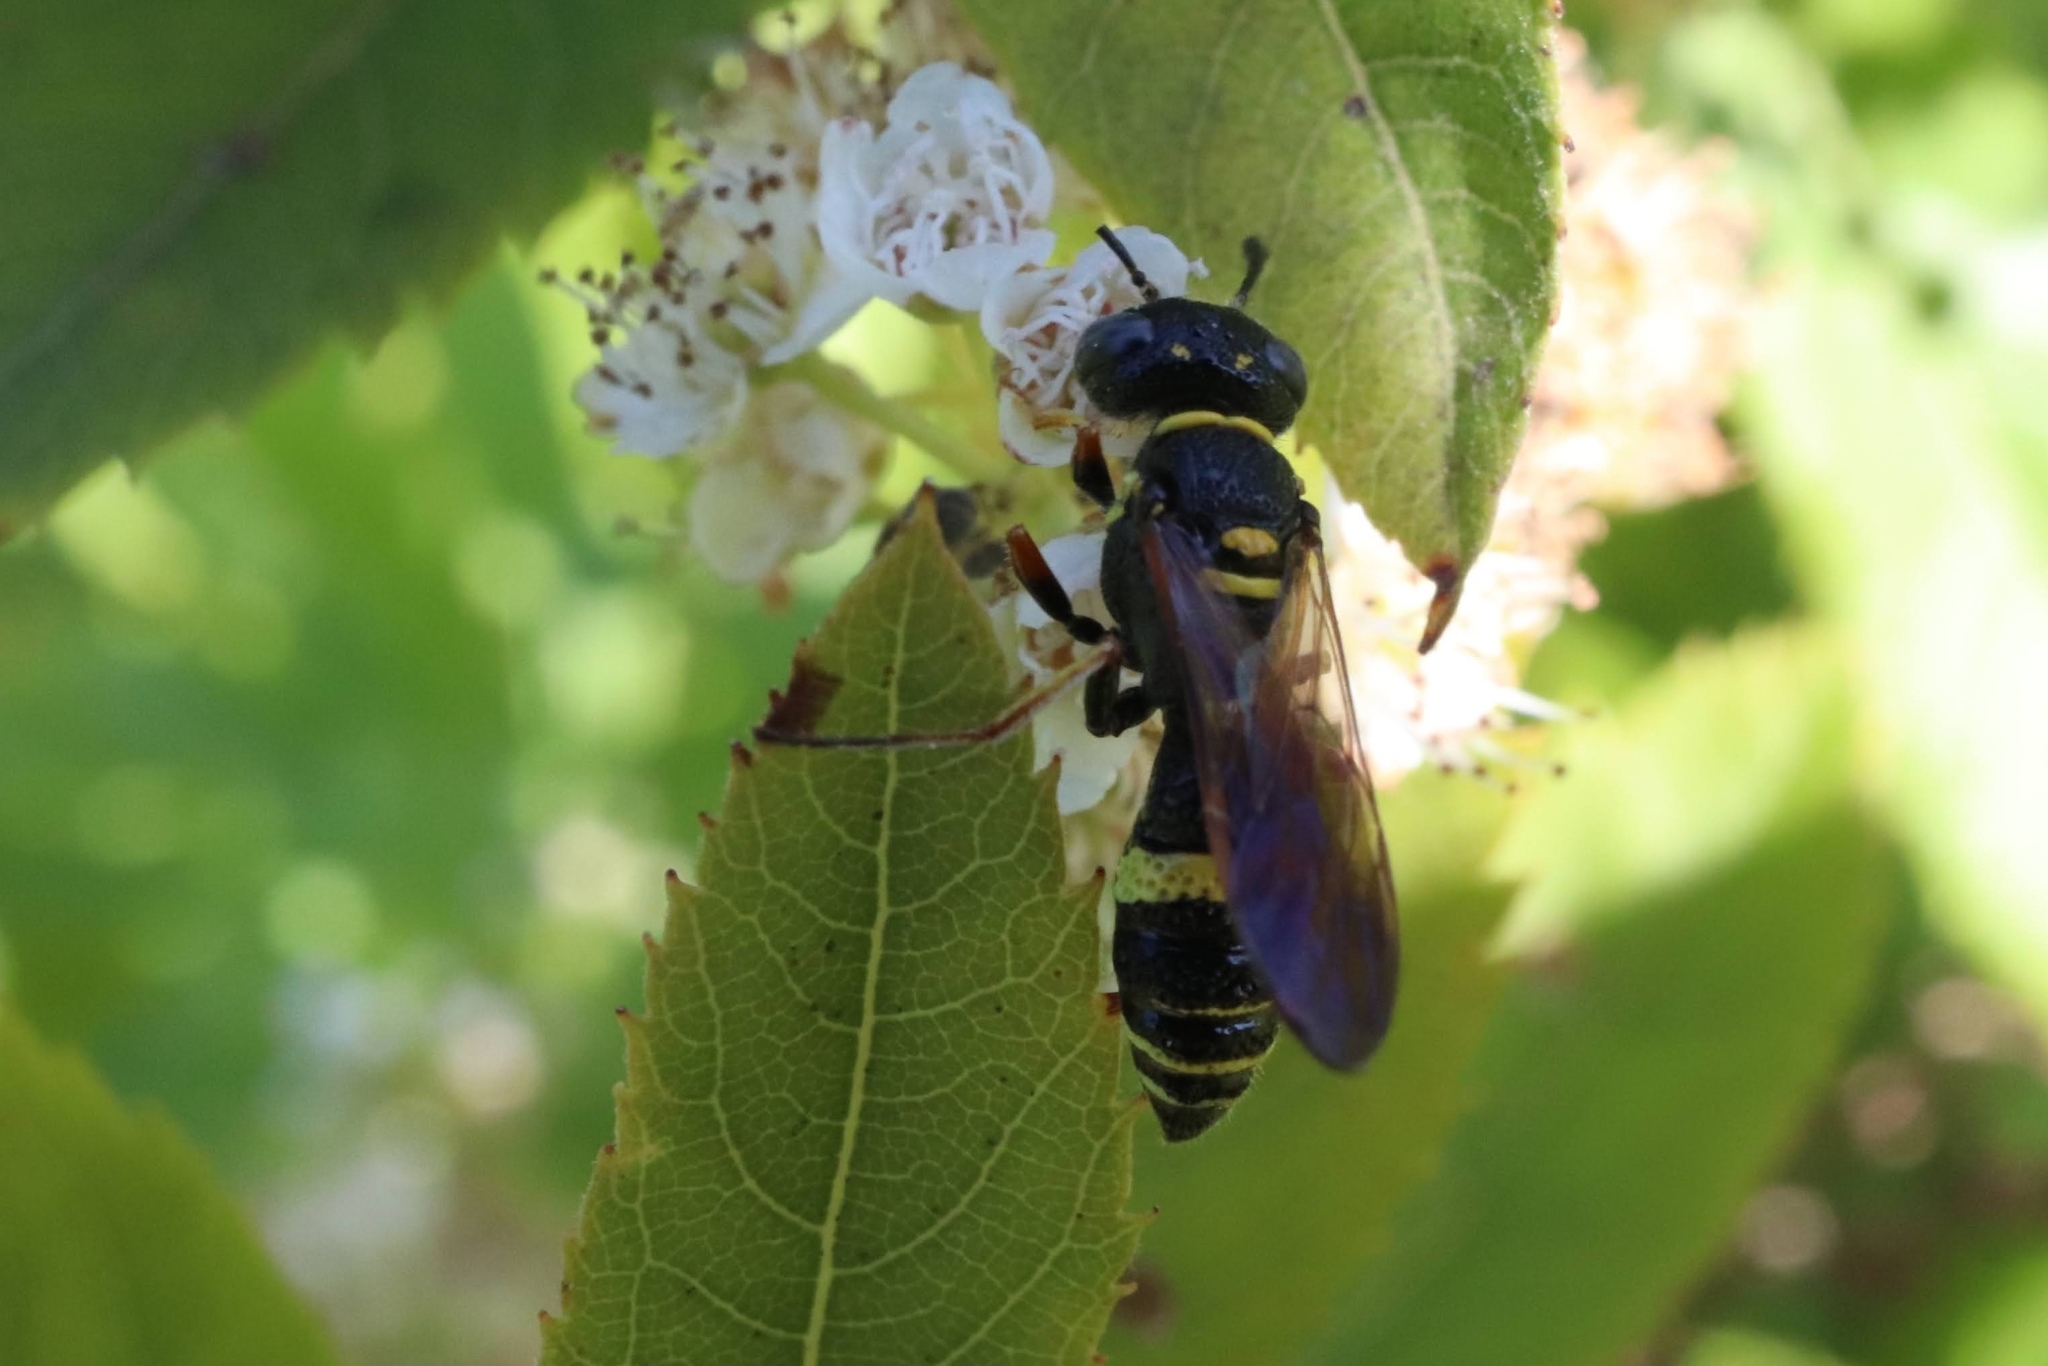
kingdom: Animalia
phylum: Arthropoda
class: Insecta
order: Hymenoptera
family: Crabronidae
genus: Philanthus
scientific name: Philanthus gibbosus
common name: Humped beewolf
